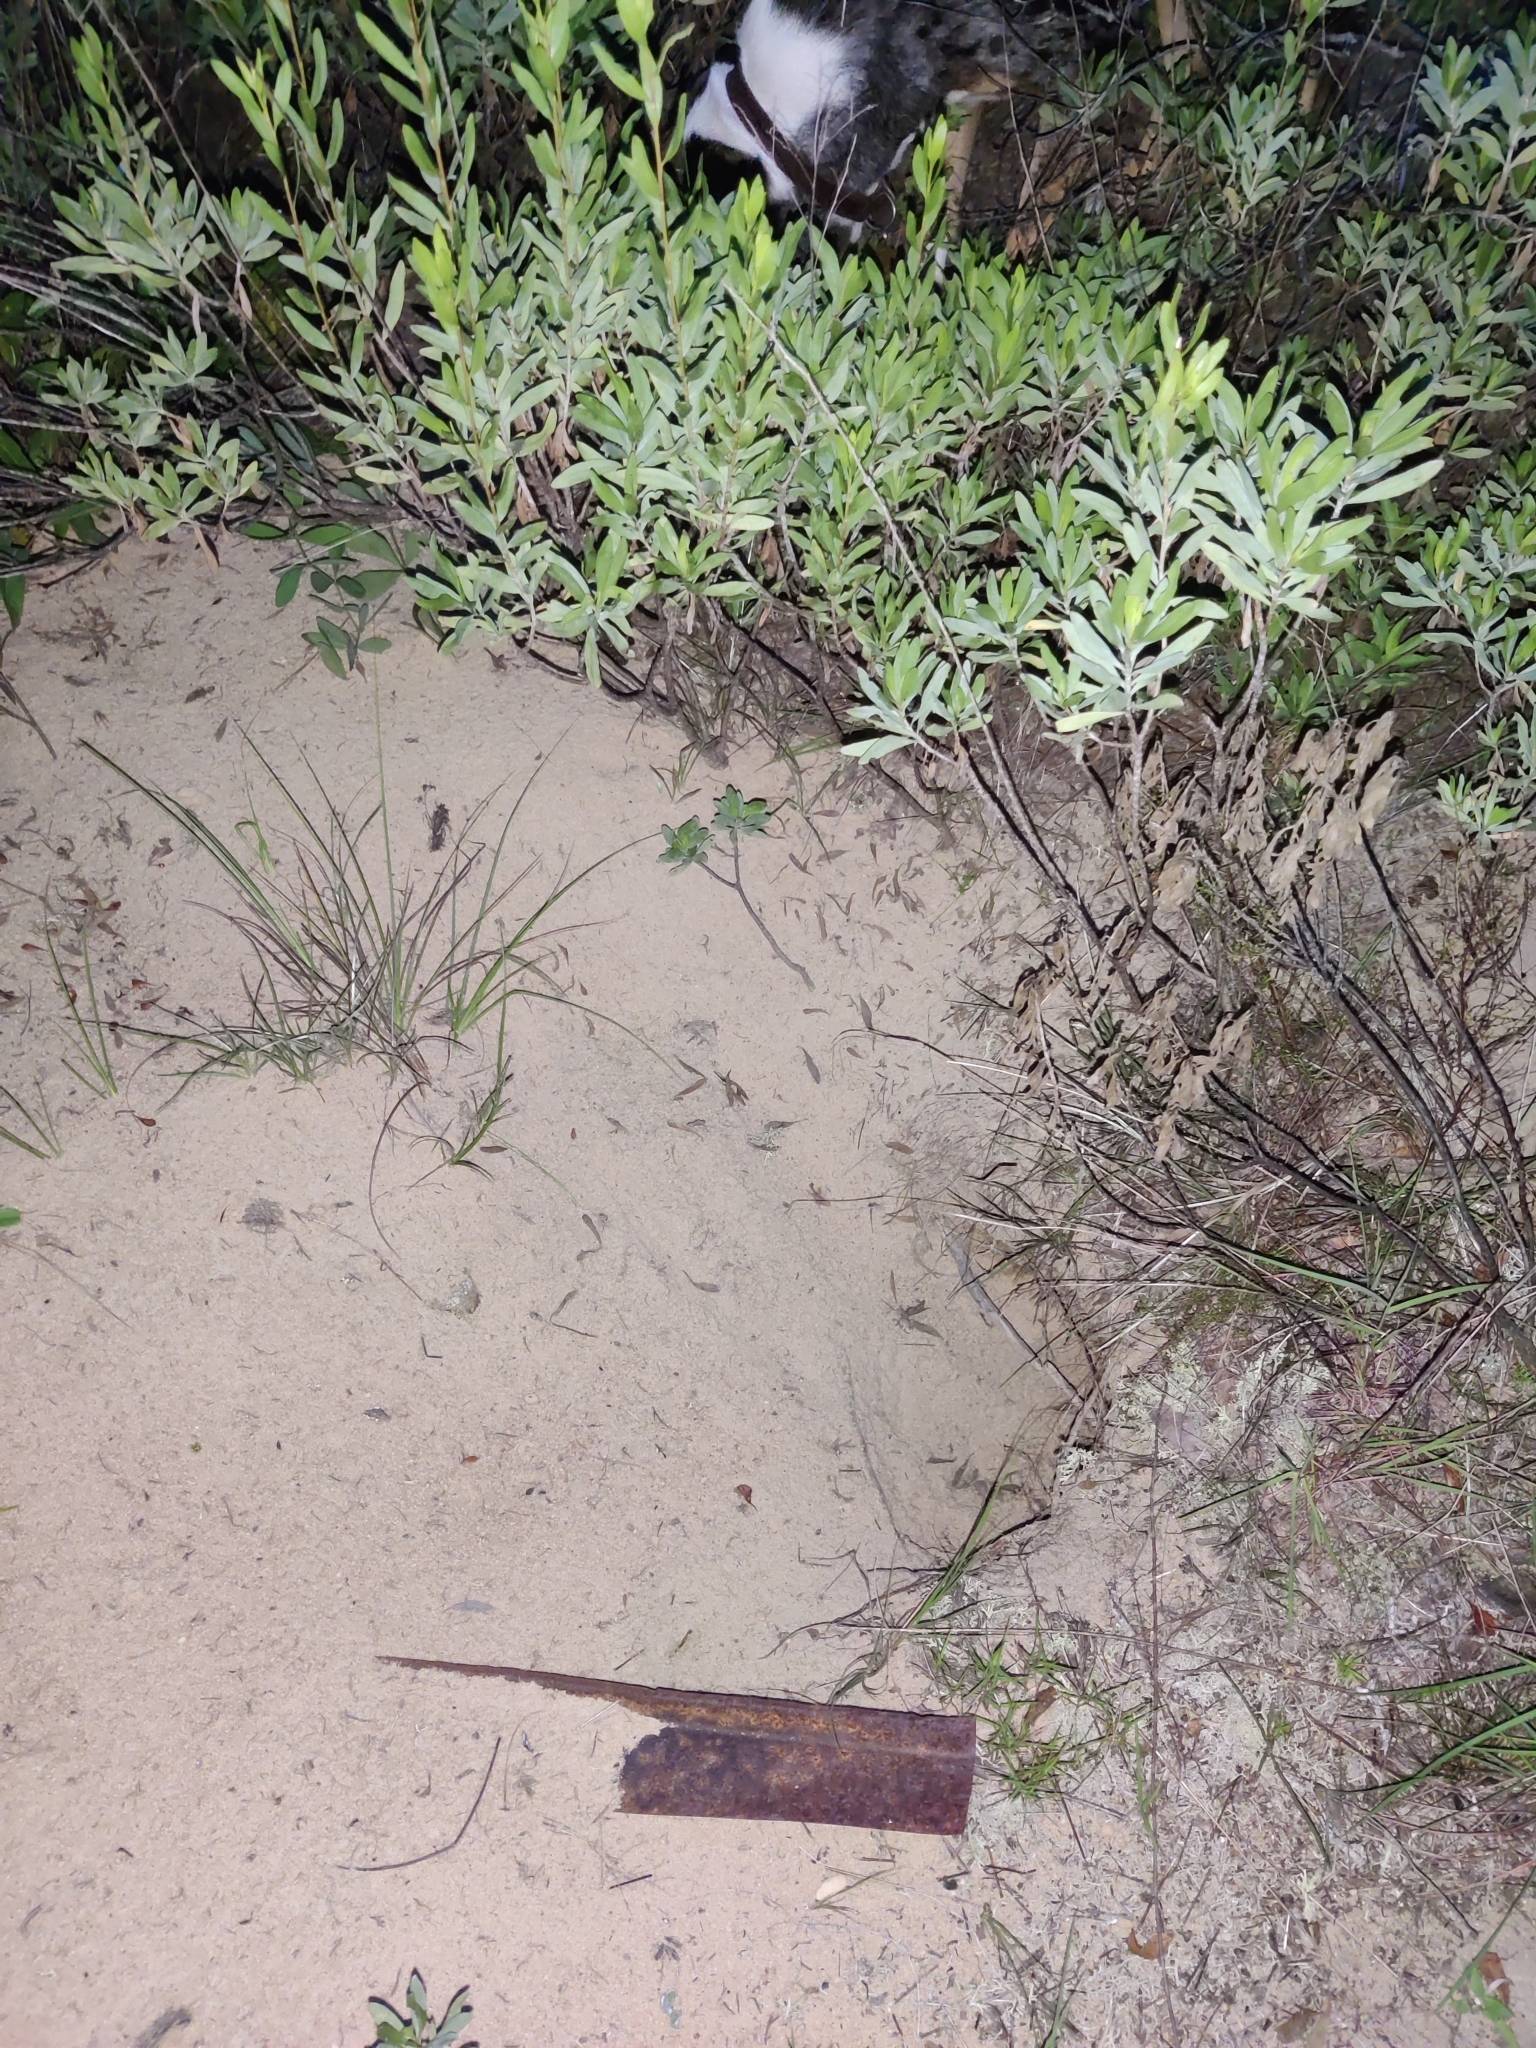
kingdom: Animalia
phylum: Chordata
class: Testudines
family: Testudinidae
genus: Gopherus
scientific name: Gopherus polyphemus
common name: Florida gopher tortoise
